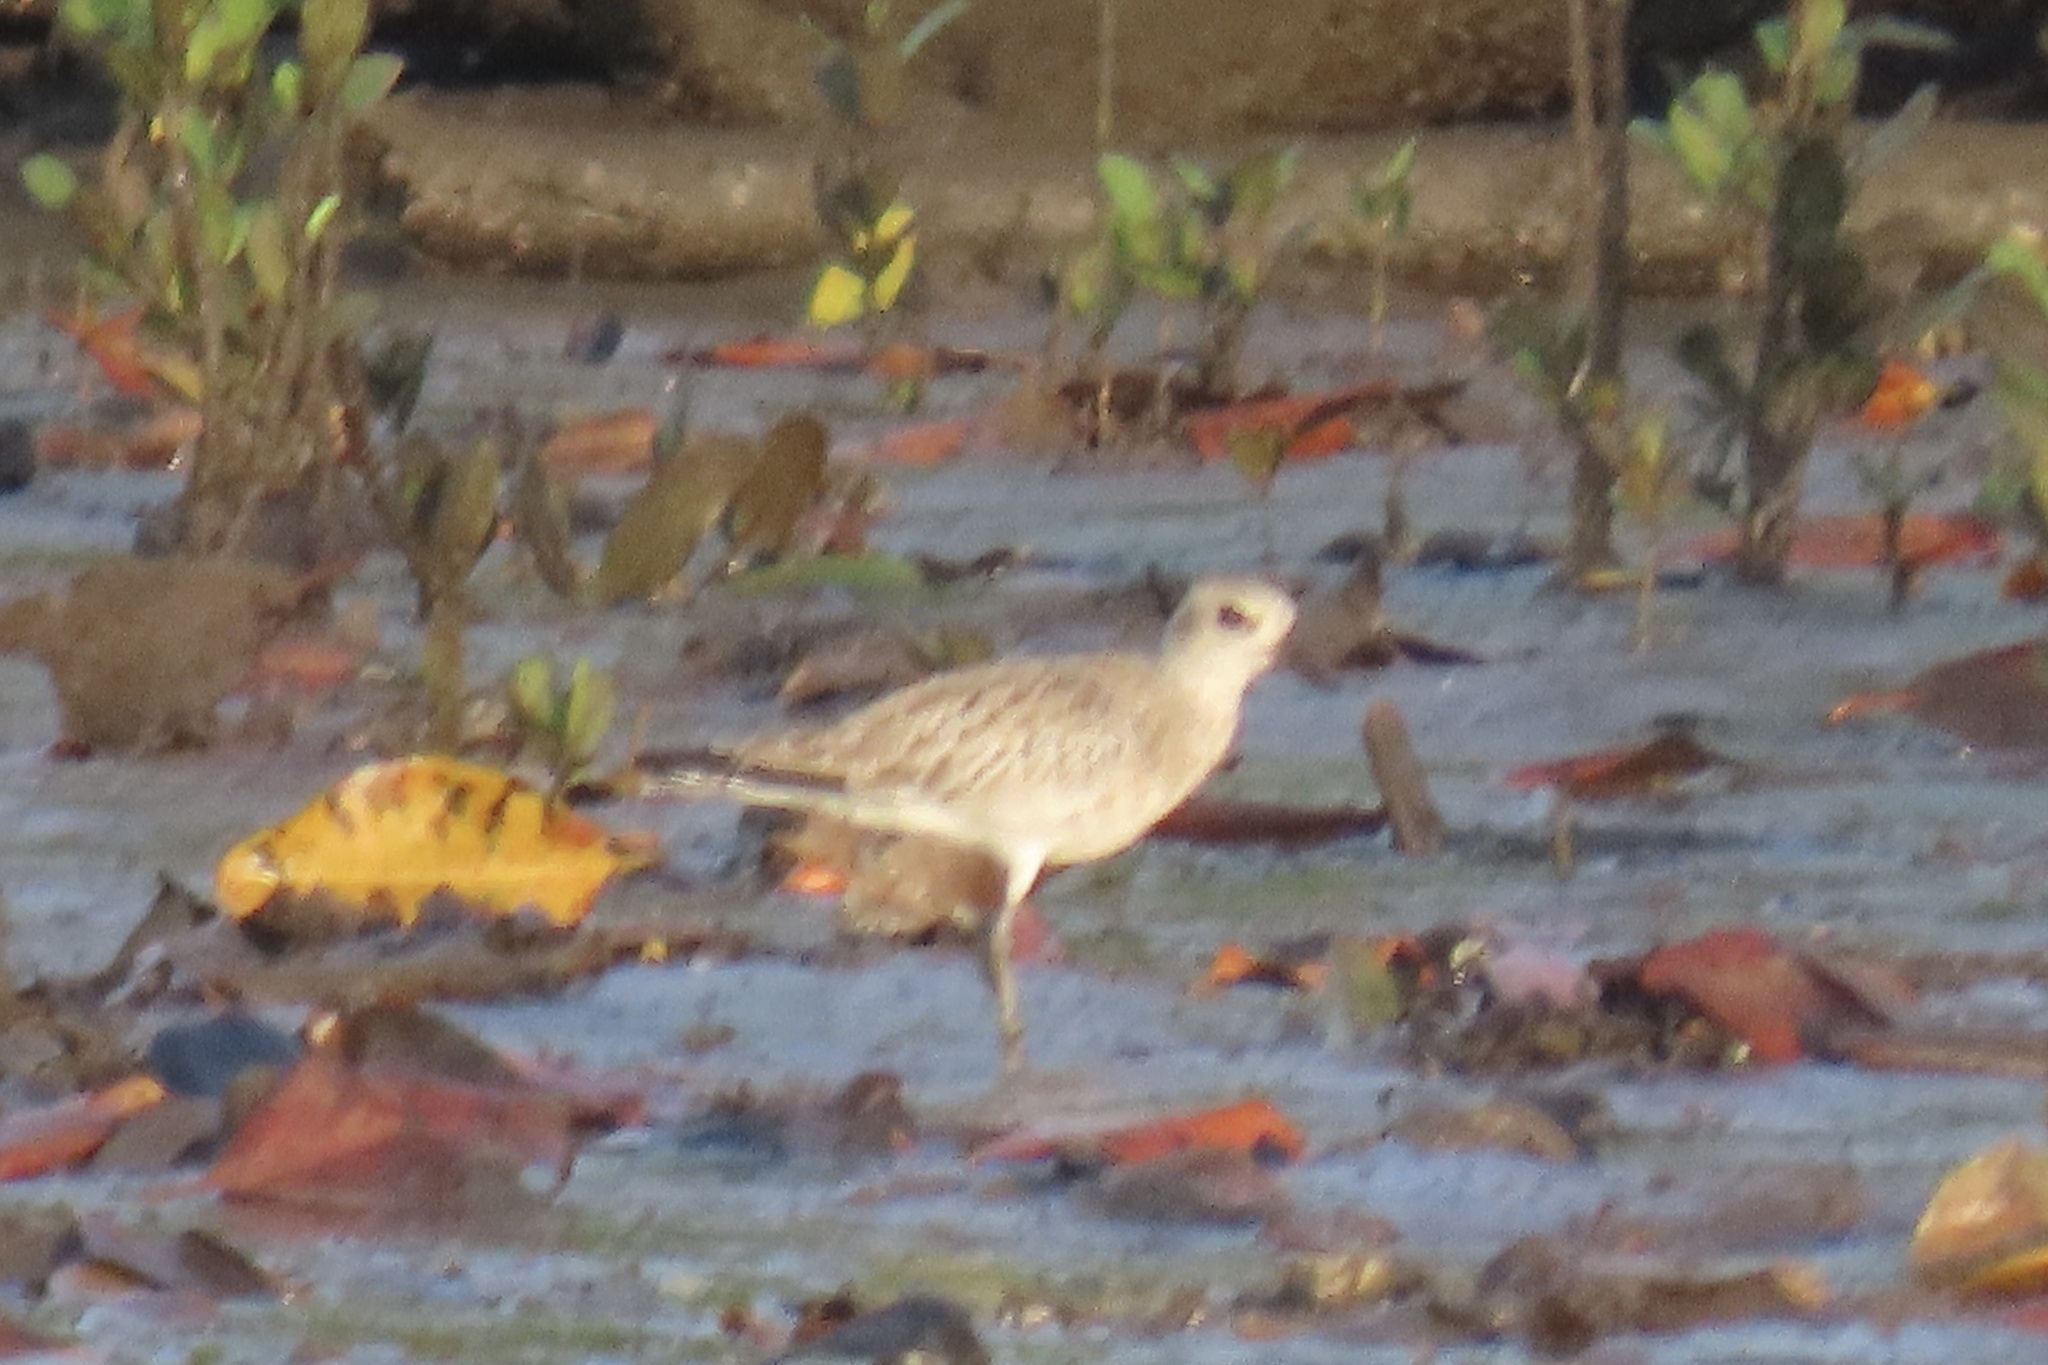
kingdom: Animalia
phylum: Chordata
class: Aves
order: Charadriiformes
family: Charadriidae
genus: Pluvialis
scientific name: Pluvialis squatarola
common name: Grey plover
